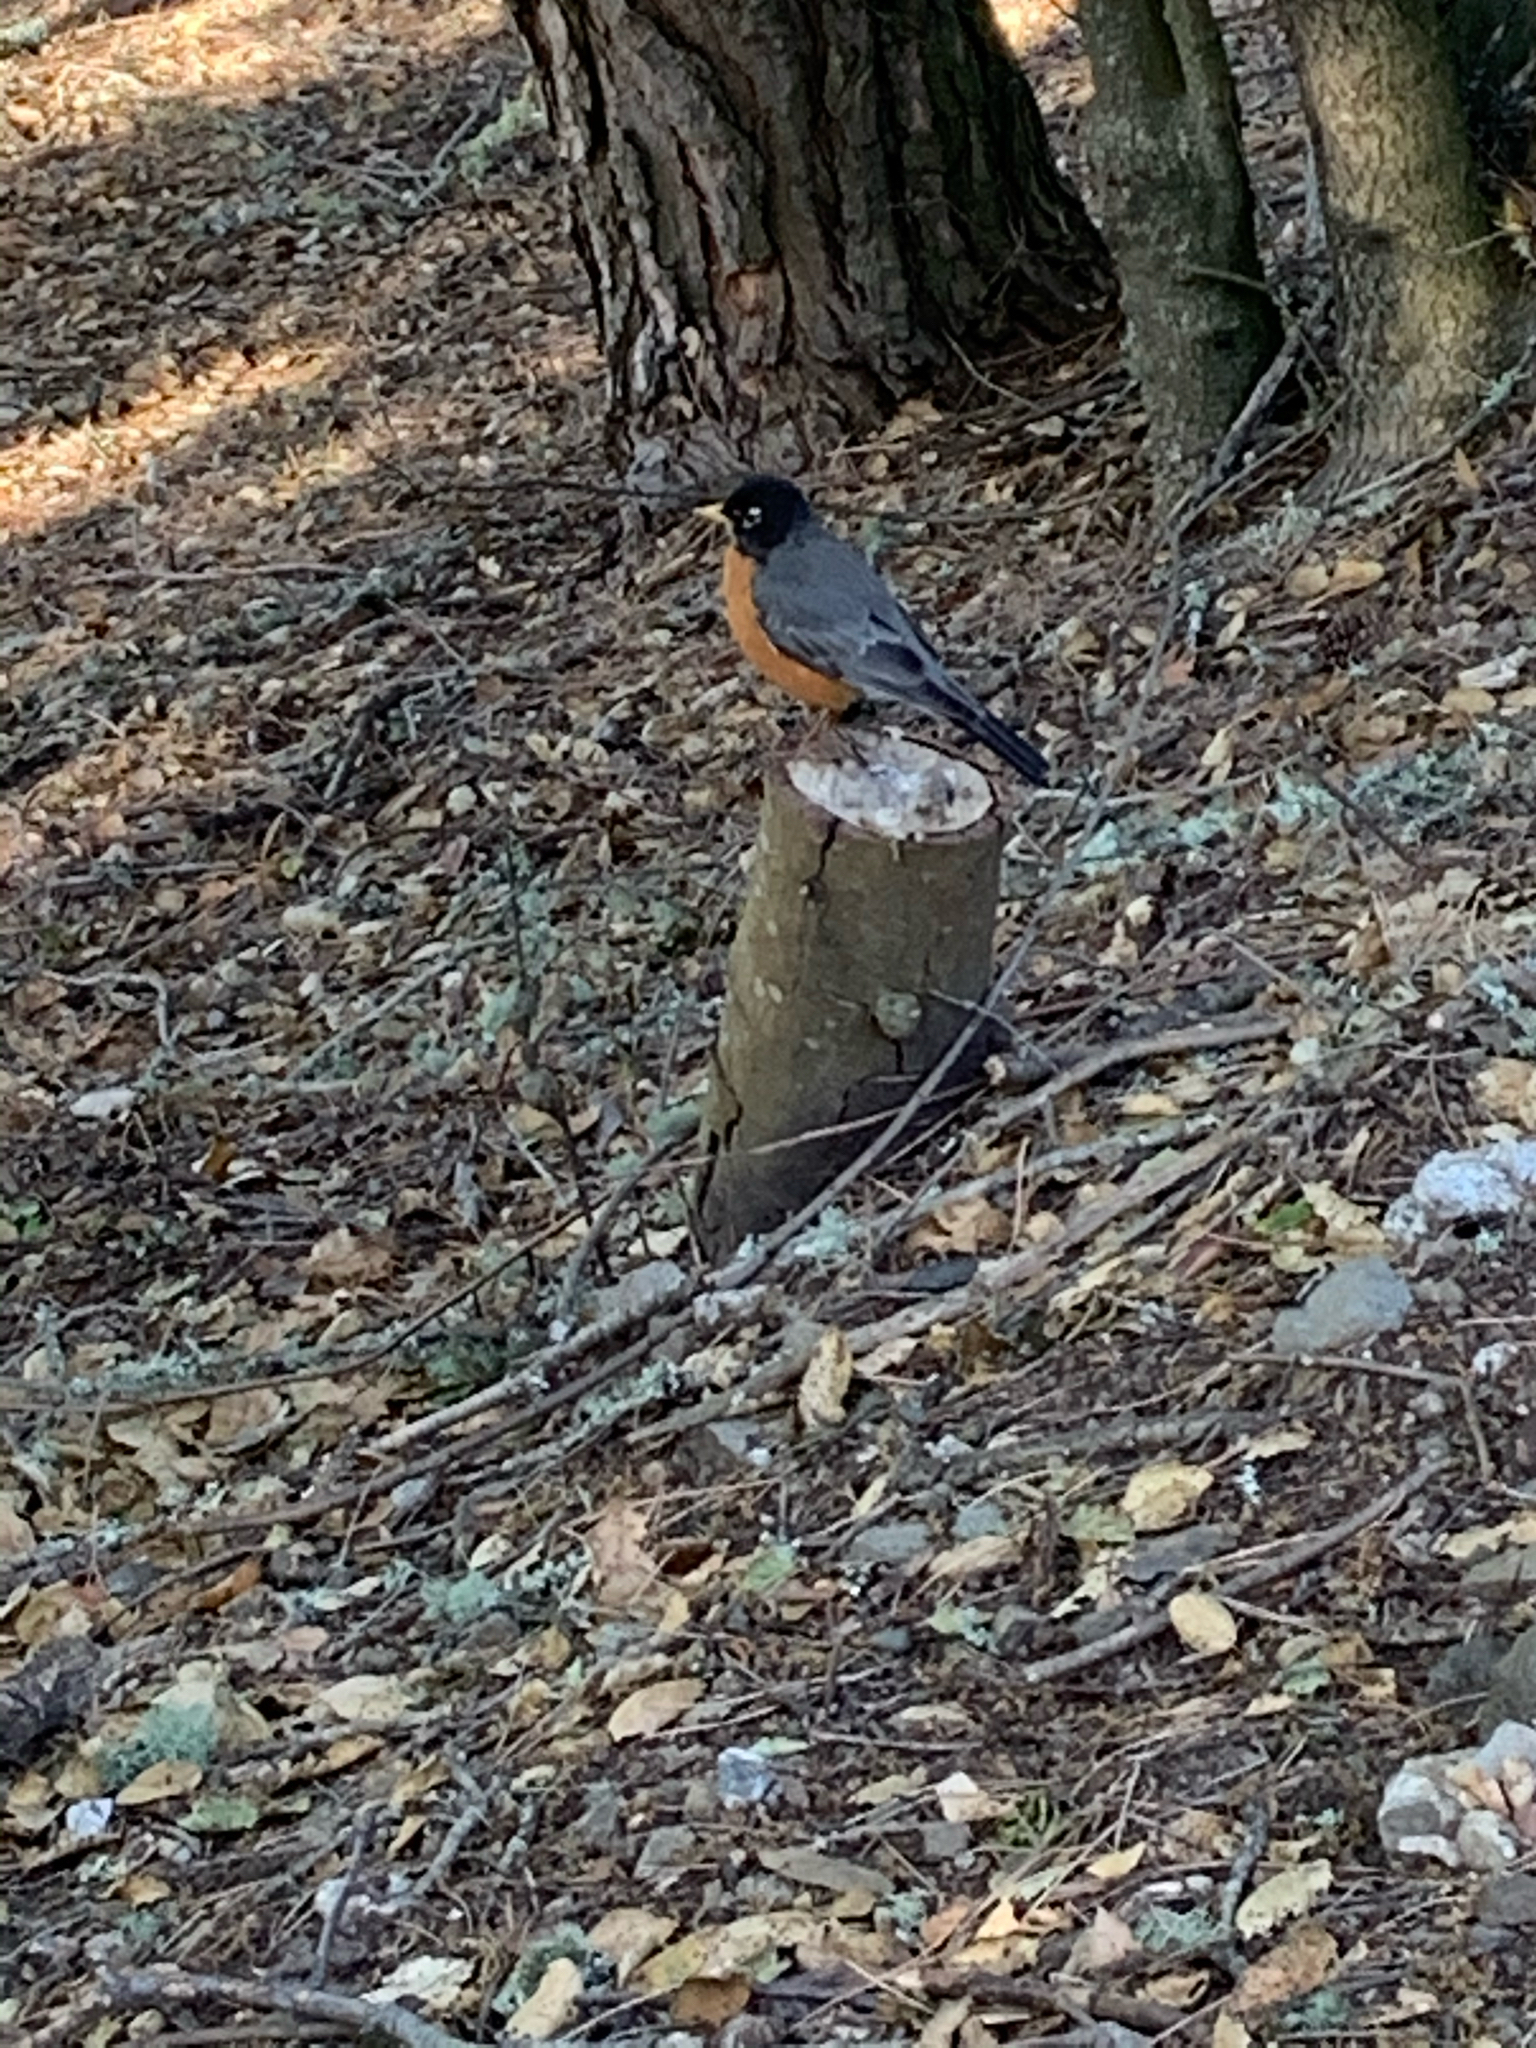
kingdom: Animalia
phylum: Chordata
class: Aves
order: Passeriformes
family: Turdidae
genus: Turdus
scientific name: Turdus migratorius
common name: American robin
